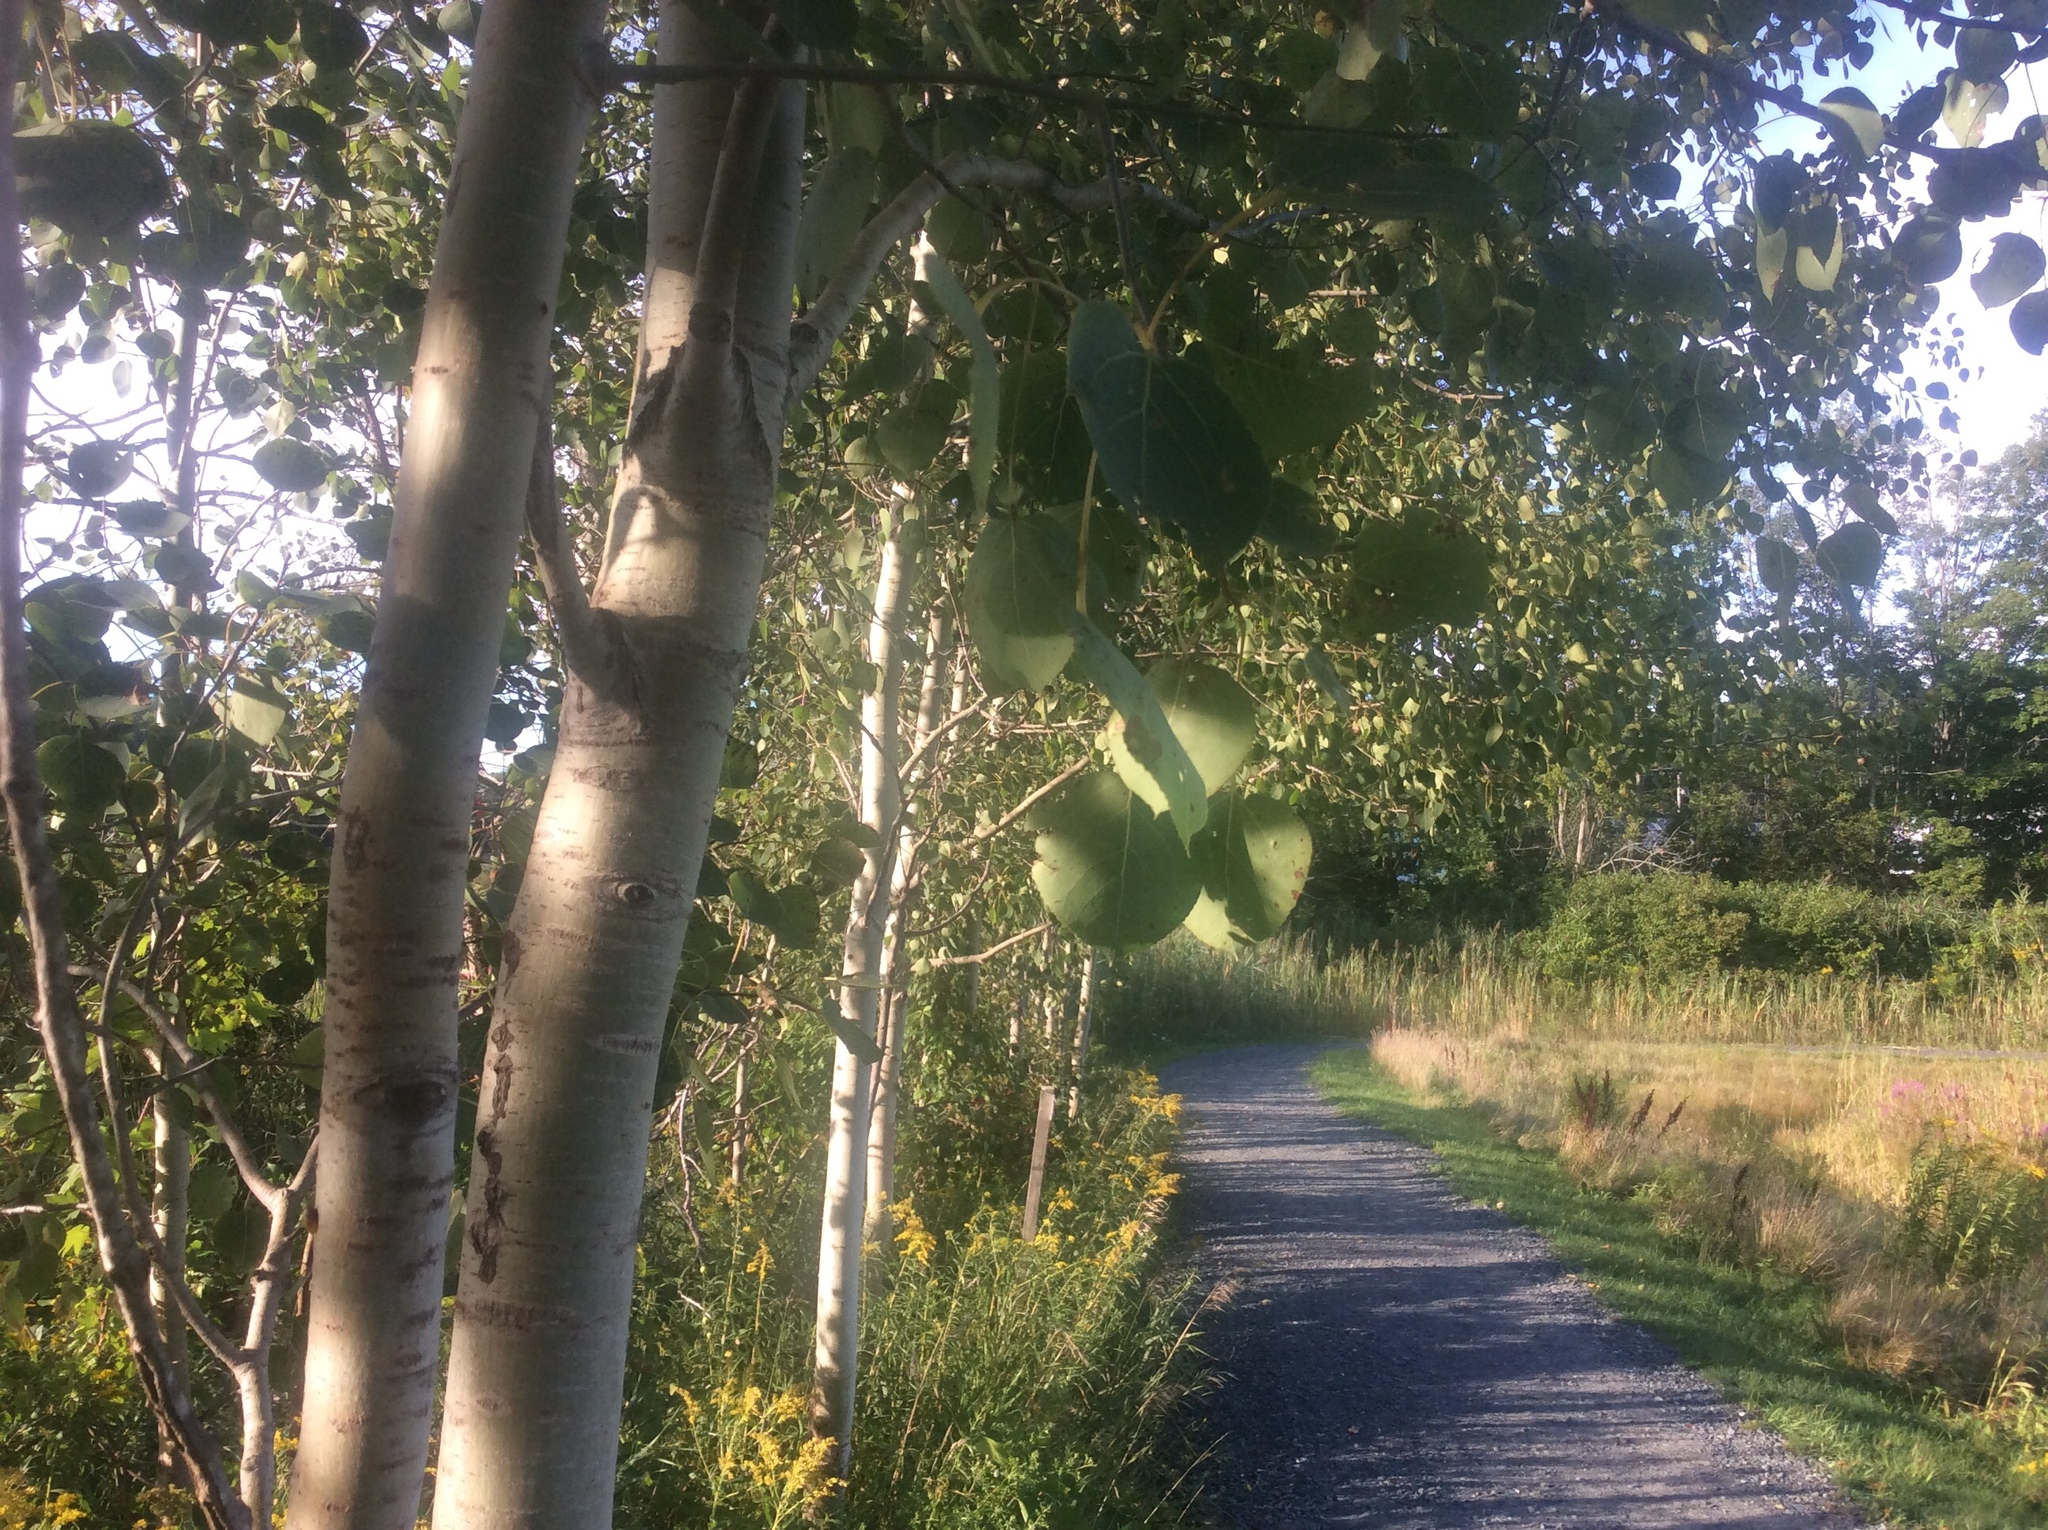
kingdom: Plantae
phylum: Tracheophyta
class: Magnoliopsida
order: Malpighiales
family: Salicaceae
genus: Populus
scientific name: Populus tremuloides
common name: Quaking aspen
